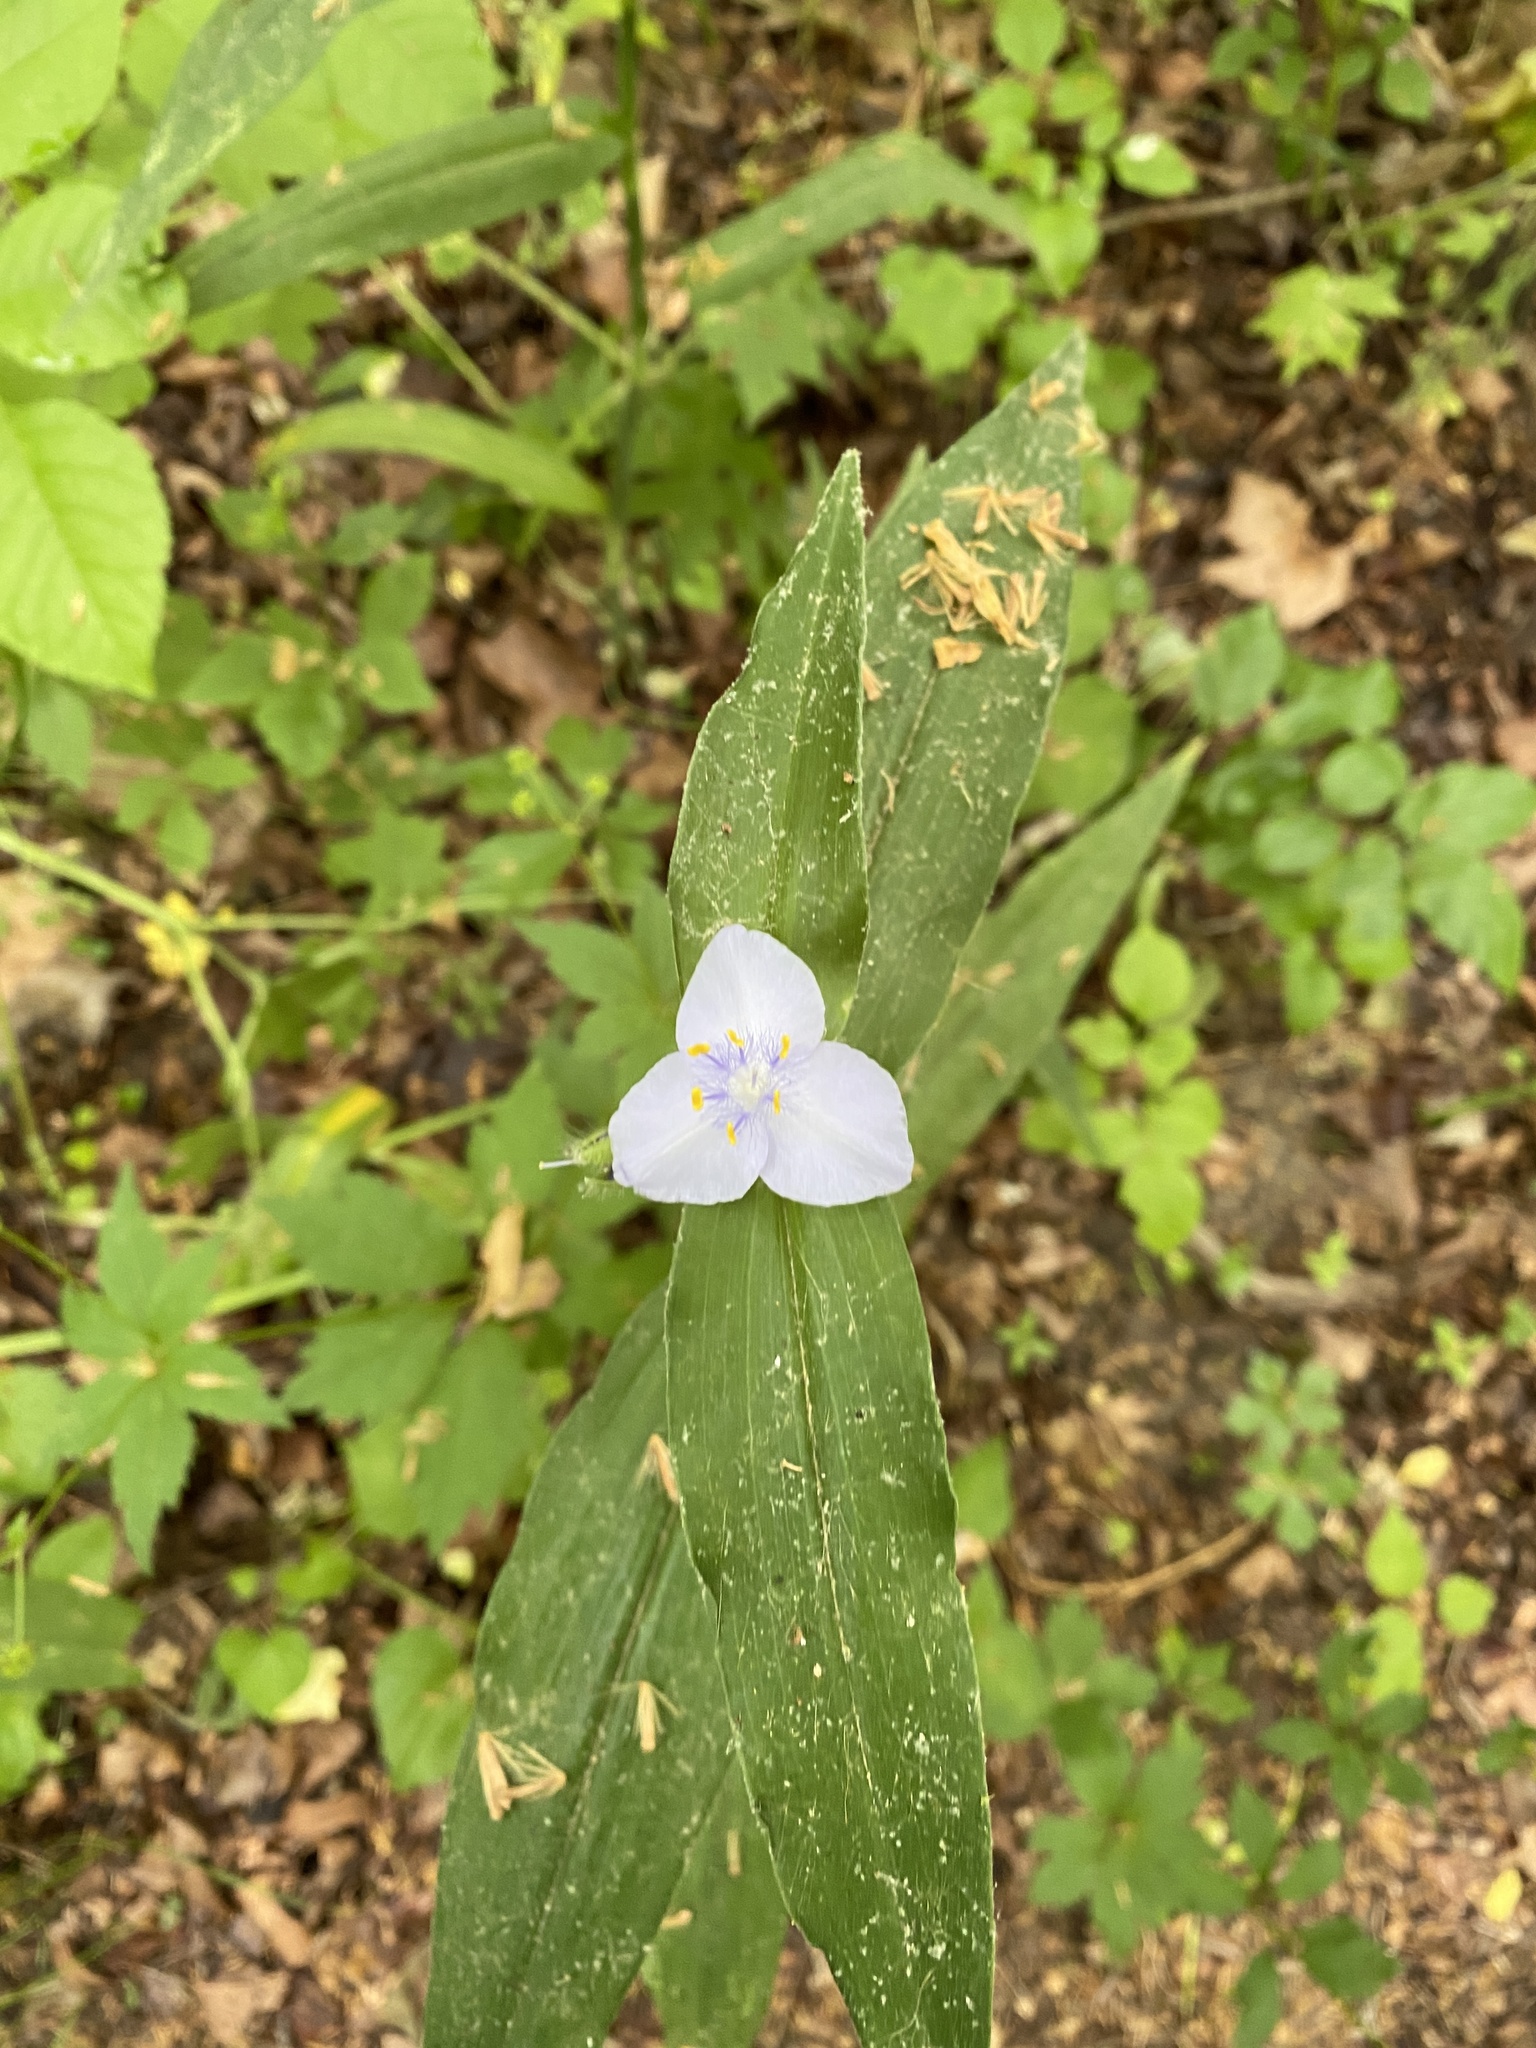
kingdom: Plantae
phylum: Tracheophyta
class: Liliopsida
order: Commelinales
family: Commelinaceae
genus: Tradescantia
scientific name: Tradescantia subaspera
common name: Wide-leaf spiderwort
